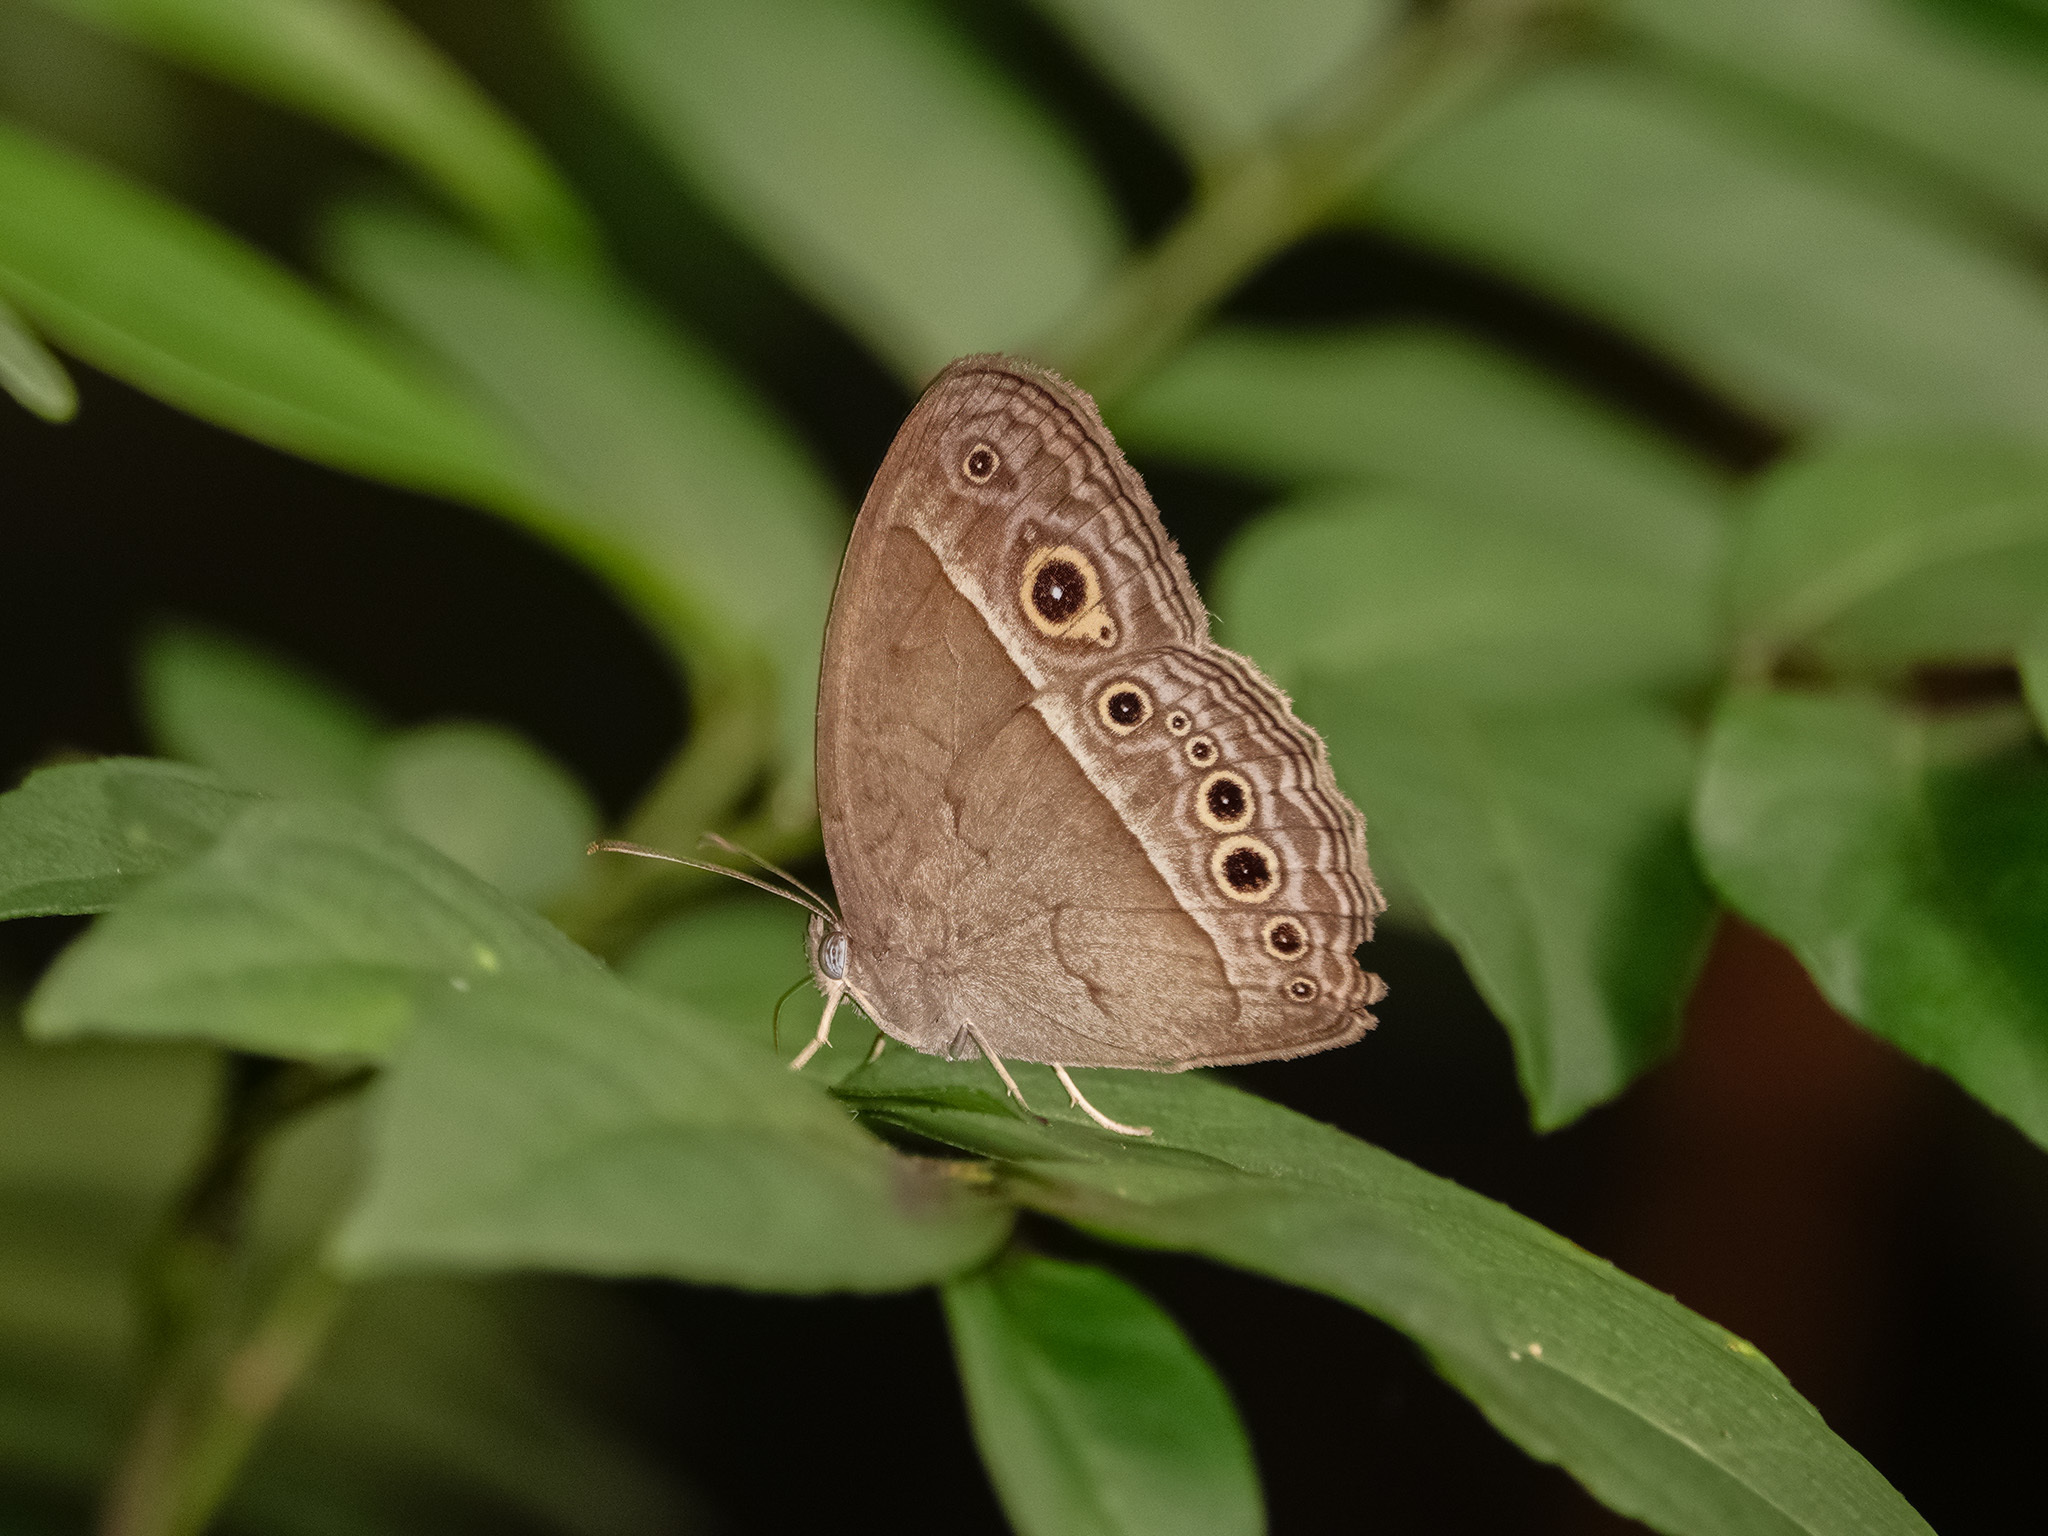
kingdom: Animalia
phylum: Arthropoda
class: Insecta
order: Lepidoptera
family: Nymphalidae
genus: Mycalesis
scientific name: Mycalesis perseoides
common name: Burmese bushbrown
